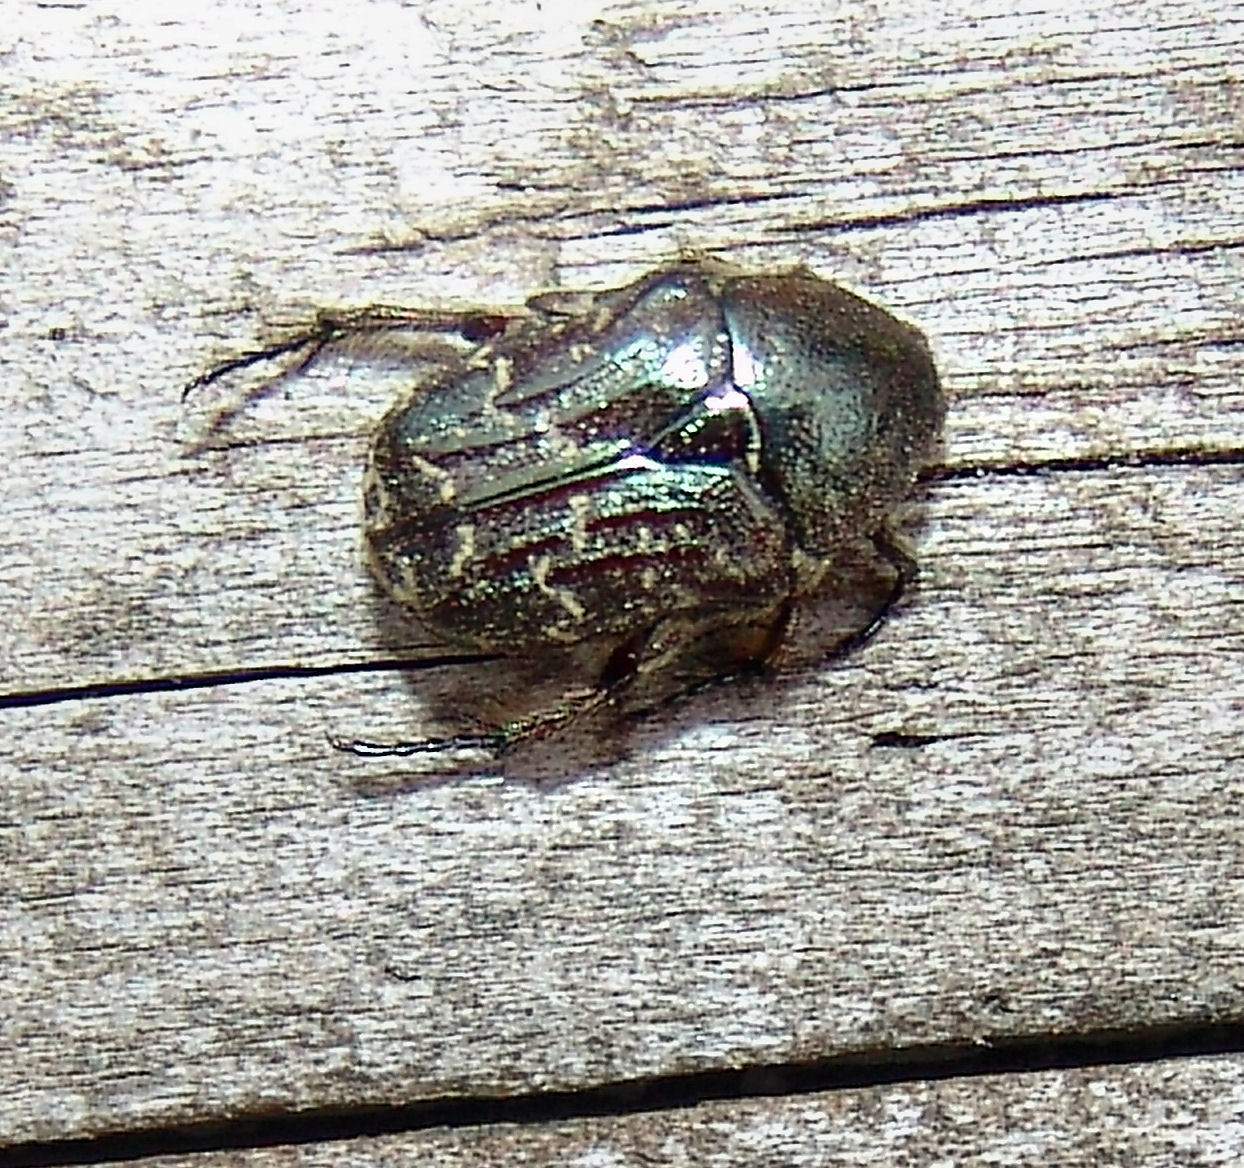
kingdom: Animalia
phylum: Arthropoda
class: Insecta
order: Coleoptera
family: Scarabaeidae
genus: Euphoria
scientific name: Euphoria sepulcralis
